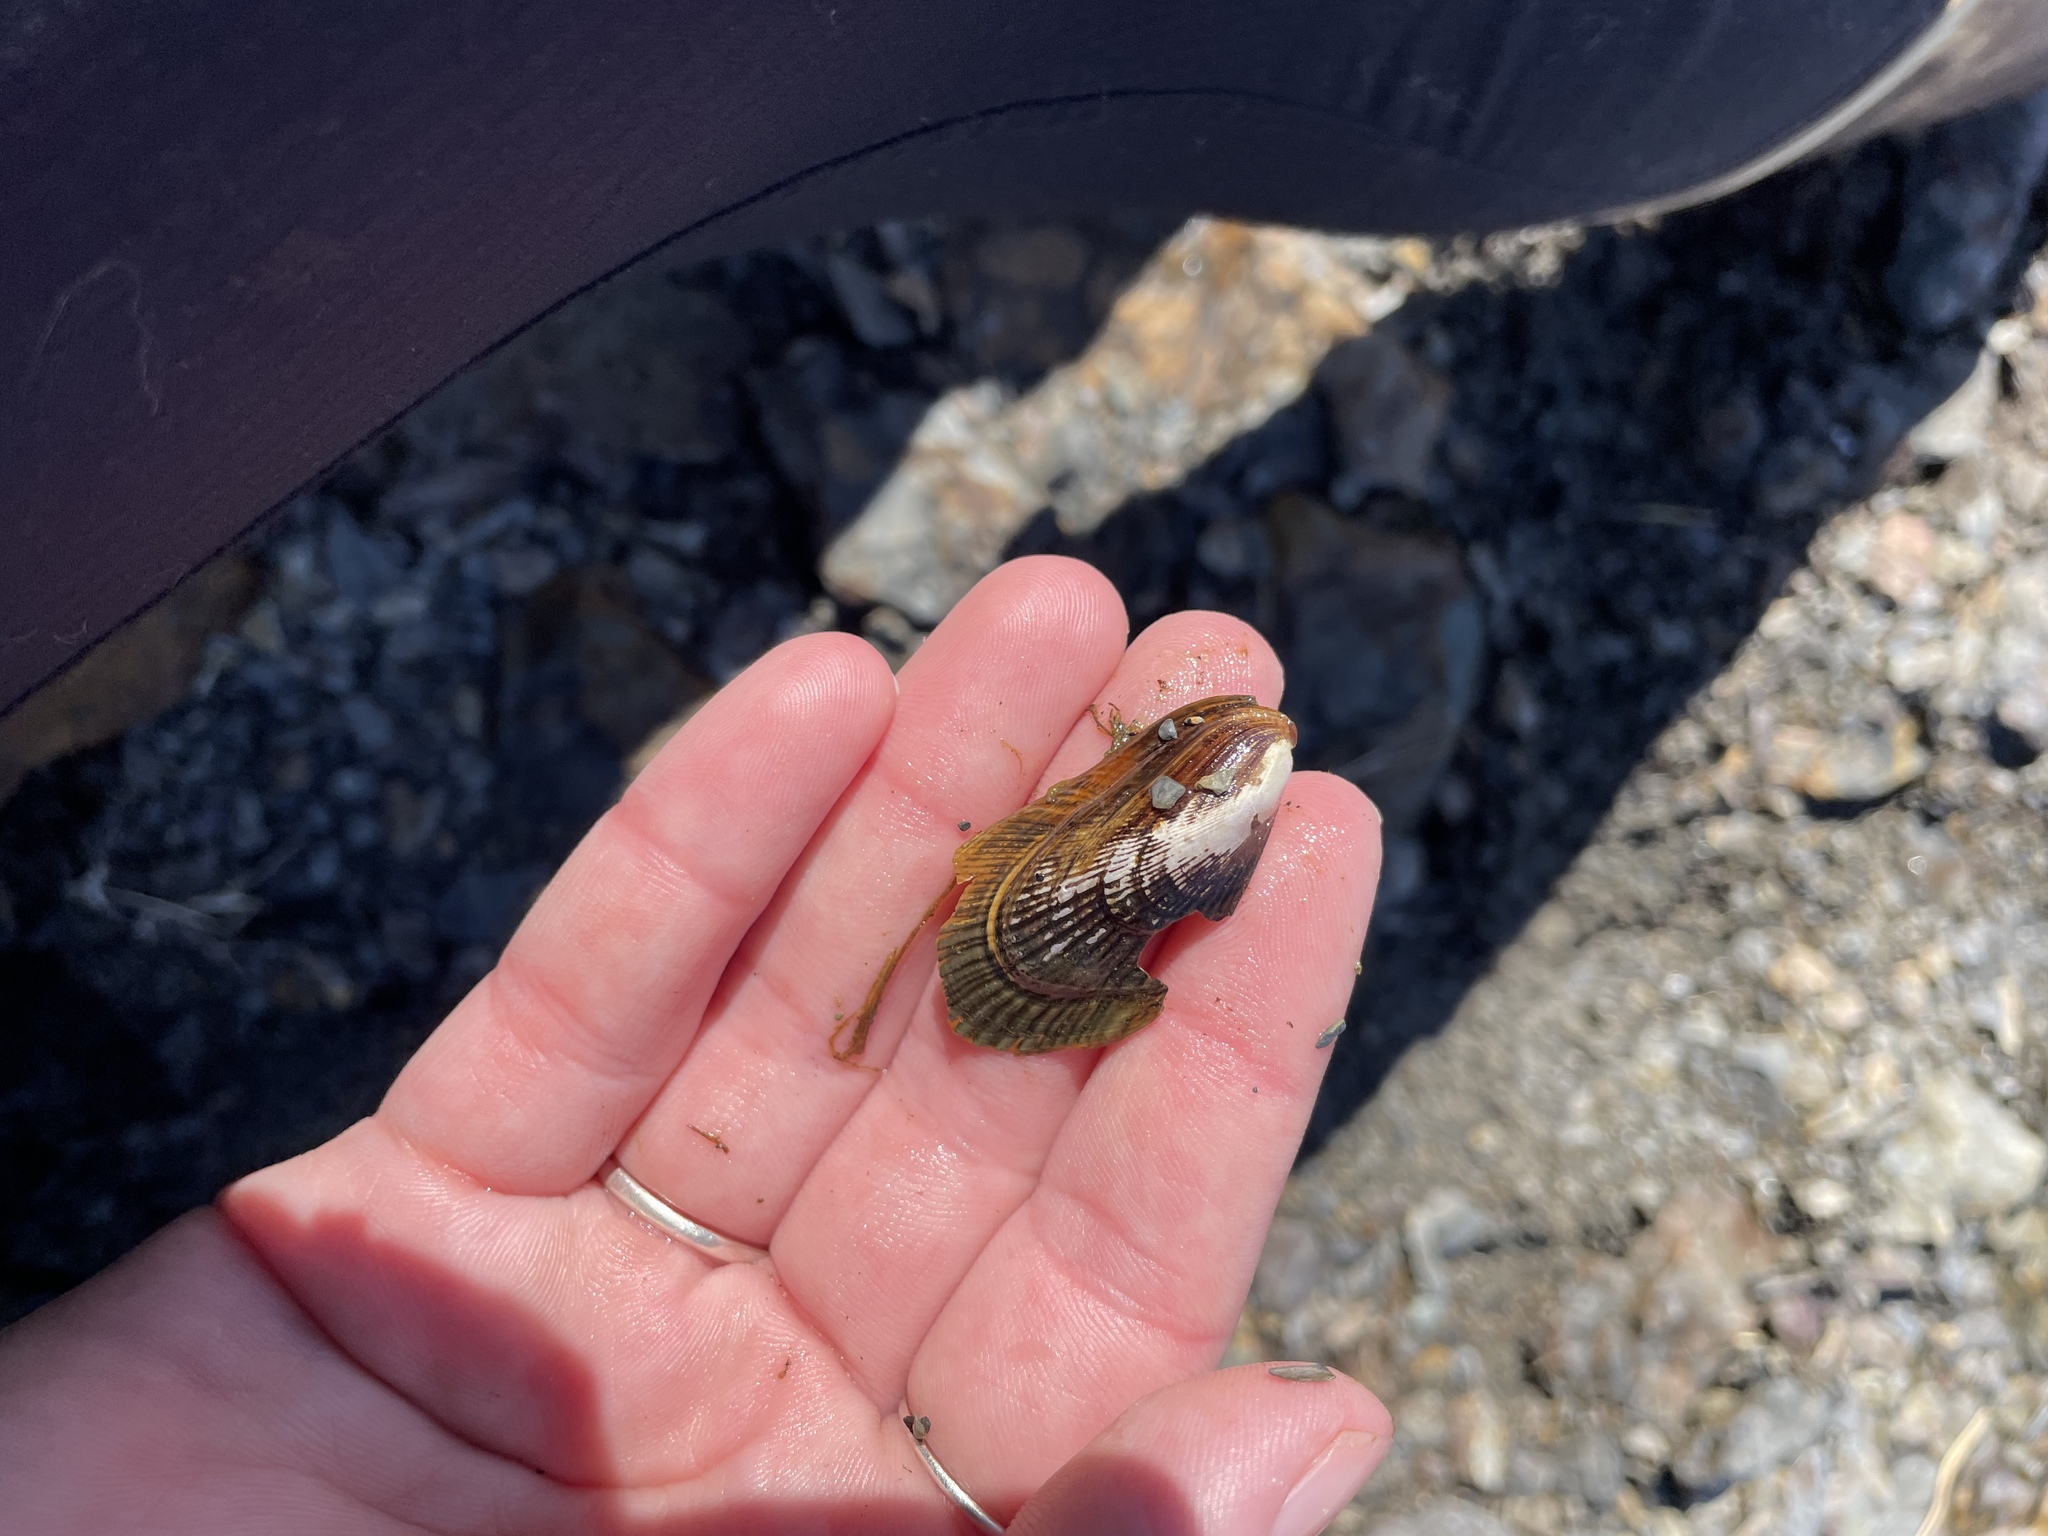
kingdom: Animalia
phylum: Mollusca
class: Bivalvia
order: Mytilida
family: Mytilidae
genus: Geukensia
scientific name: Geukensia demissa
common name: Ribbed mussel
